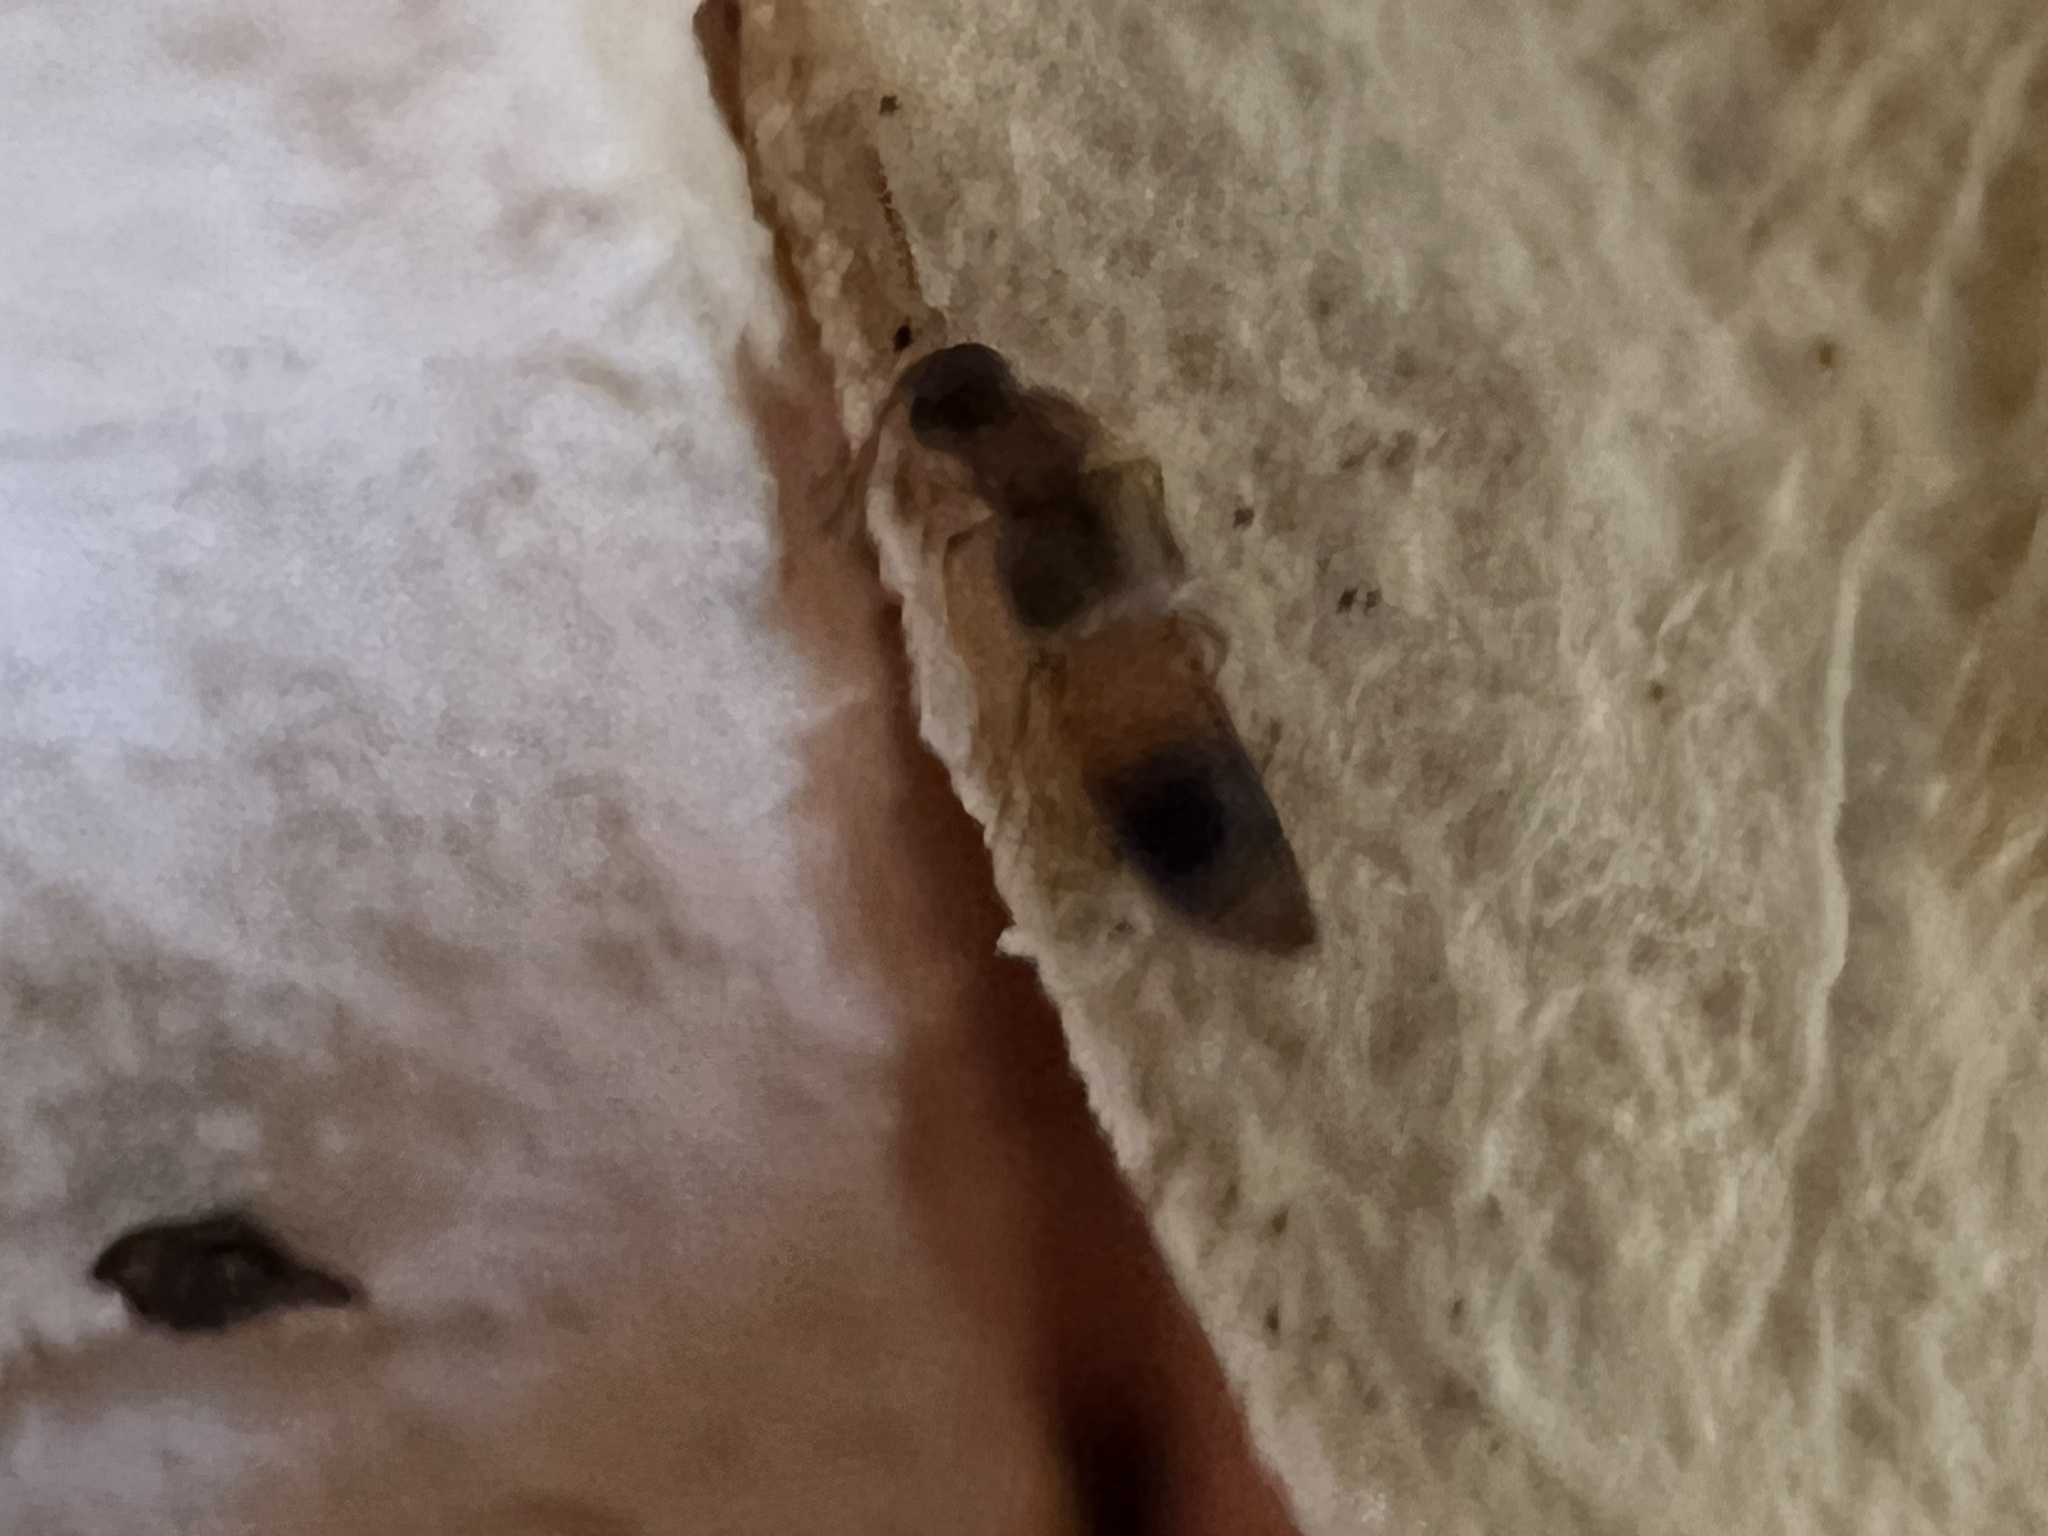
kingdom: Animalia
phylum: Arthropoda
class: Insecta
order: Coleoptera
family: Staphylinidae
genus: Phanerota
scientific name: Phanerota fasciata
